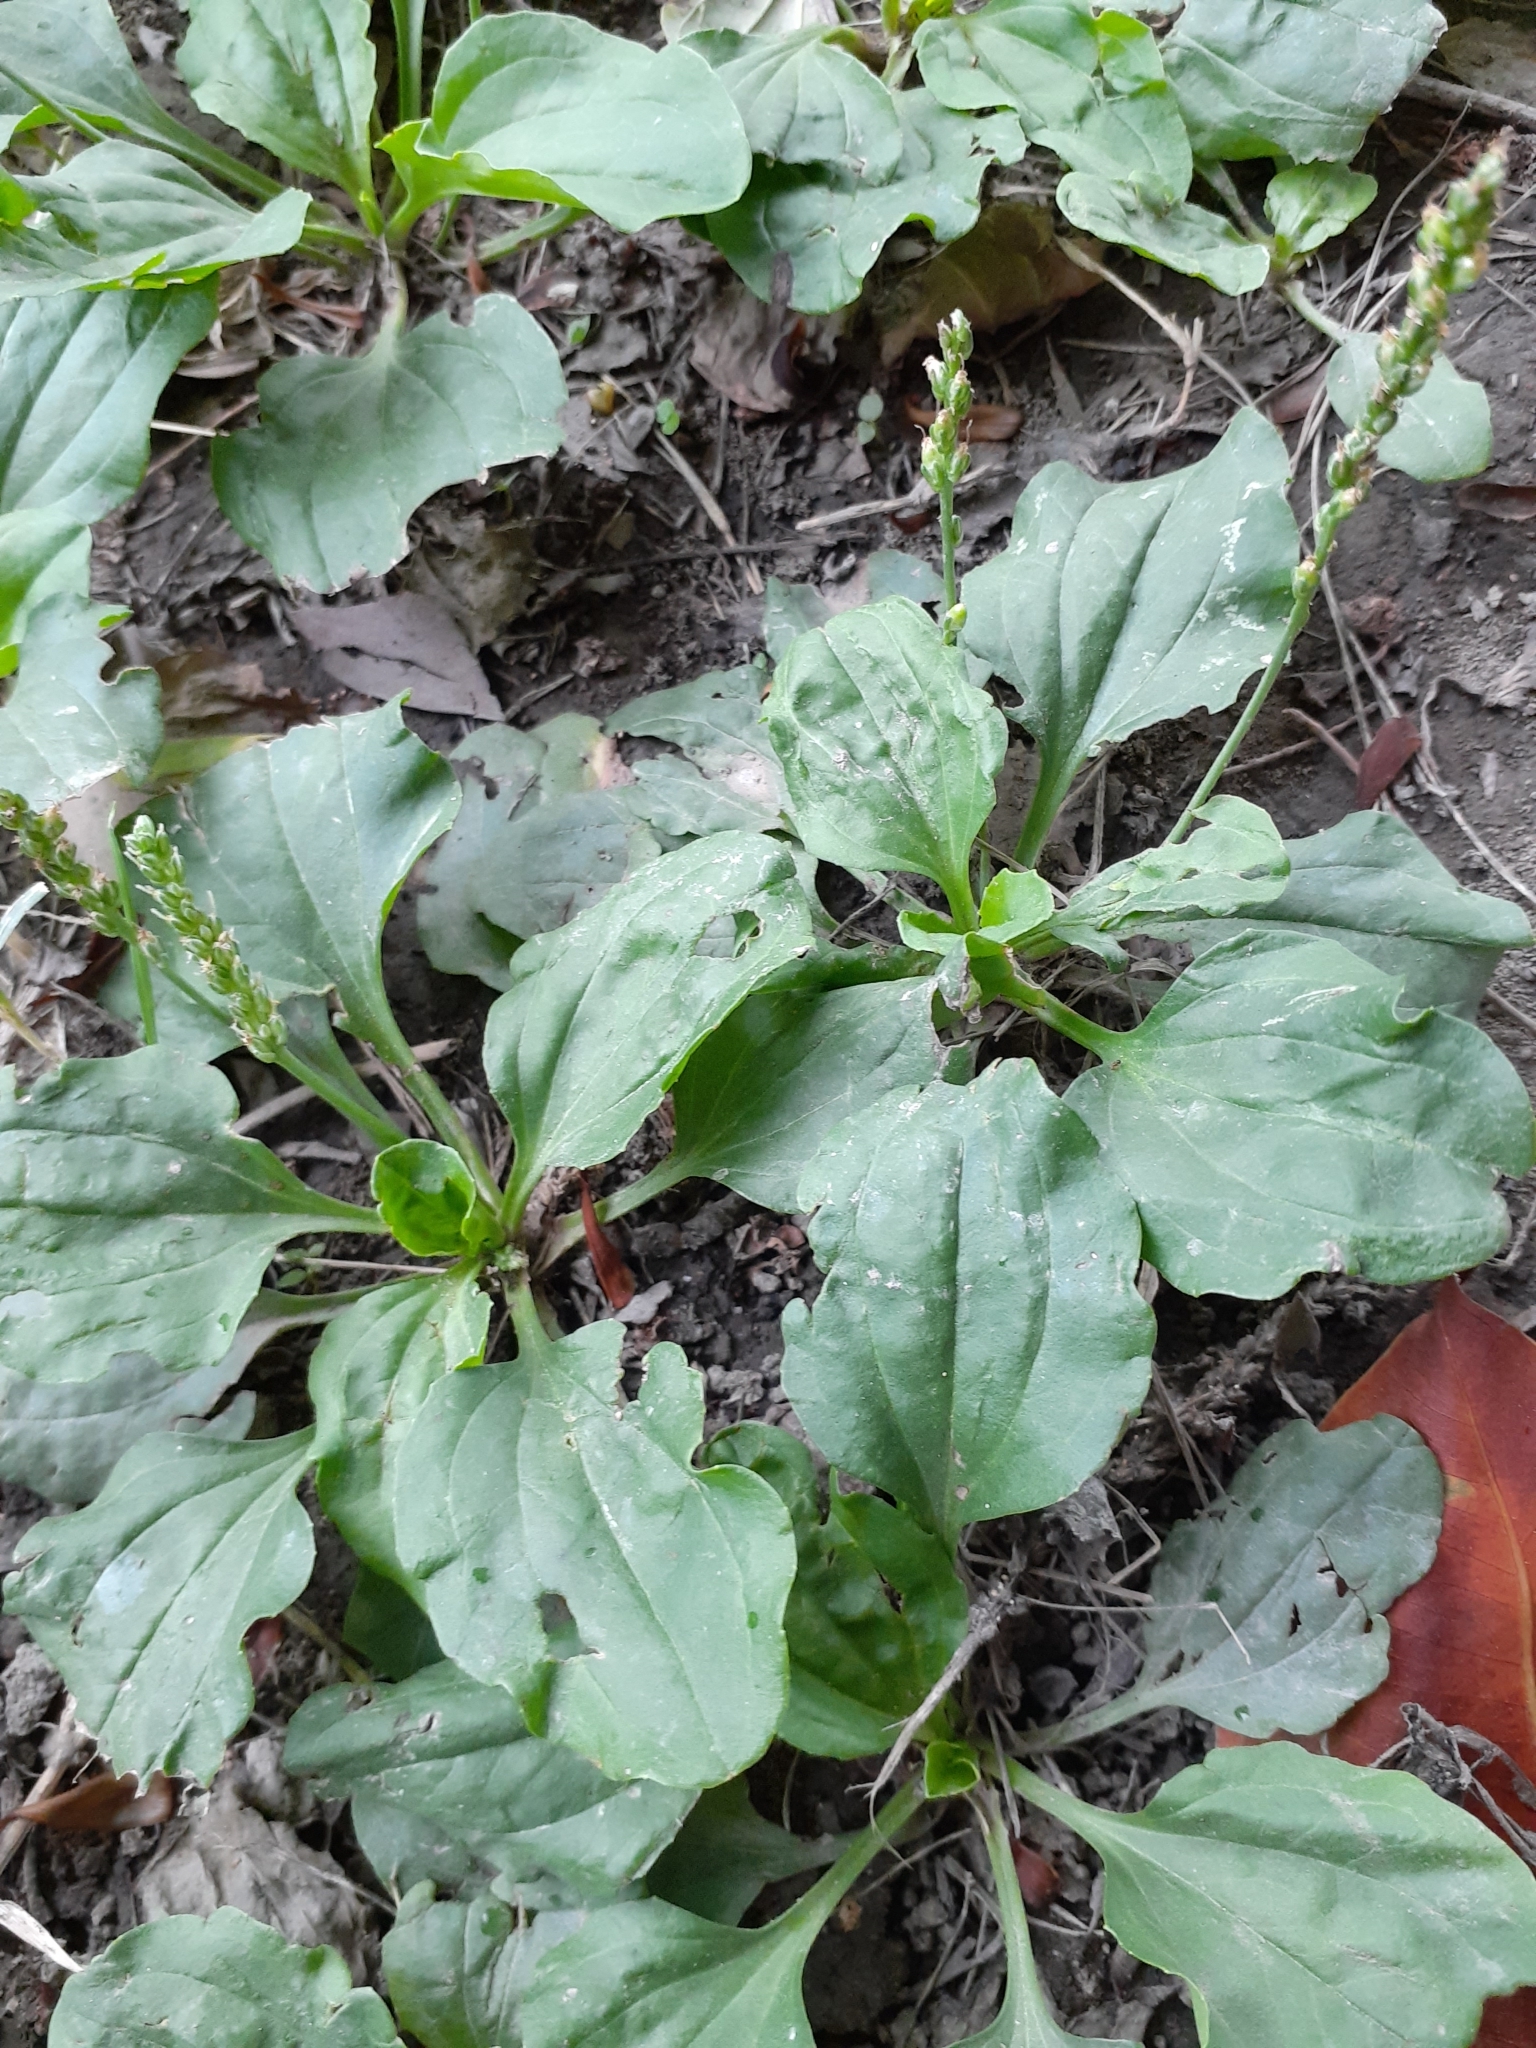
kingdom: Plantae
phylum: Tracheophyta
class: Magnoliopsida
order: Lamiales
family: Plantaginaceae
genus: Plantago
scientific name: Plantago asiatica
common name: Psyllium
